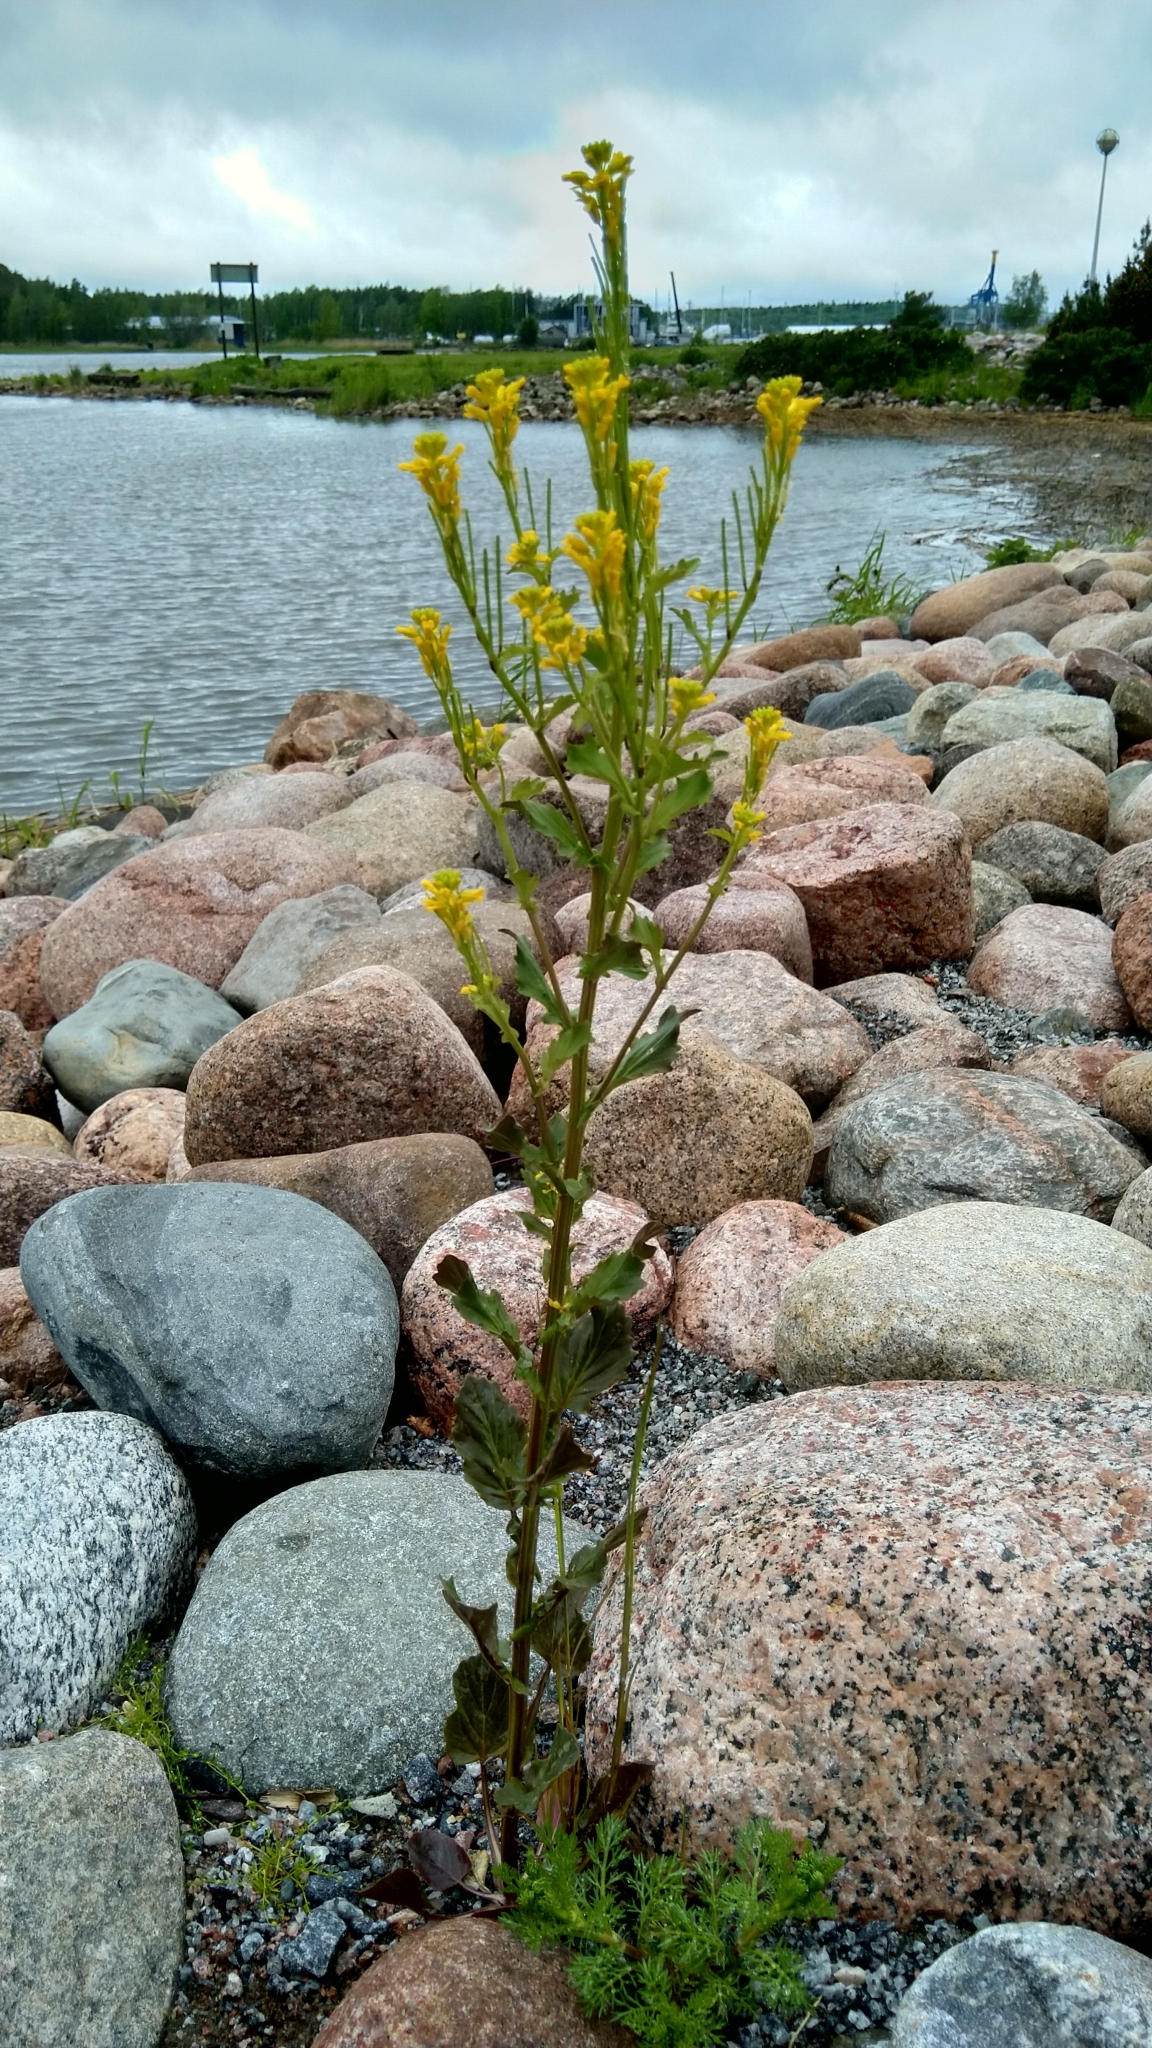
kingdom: Plantae
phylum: Tracheophyta
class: Magnoliopsida
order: Brassicales
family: Brassicaceae
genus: Barbarea
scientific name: Barbarea stricta
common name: Small-flowered winter-cress
